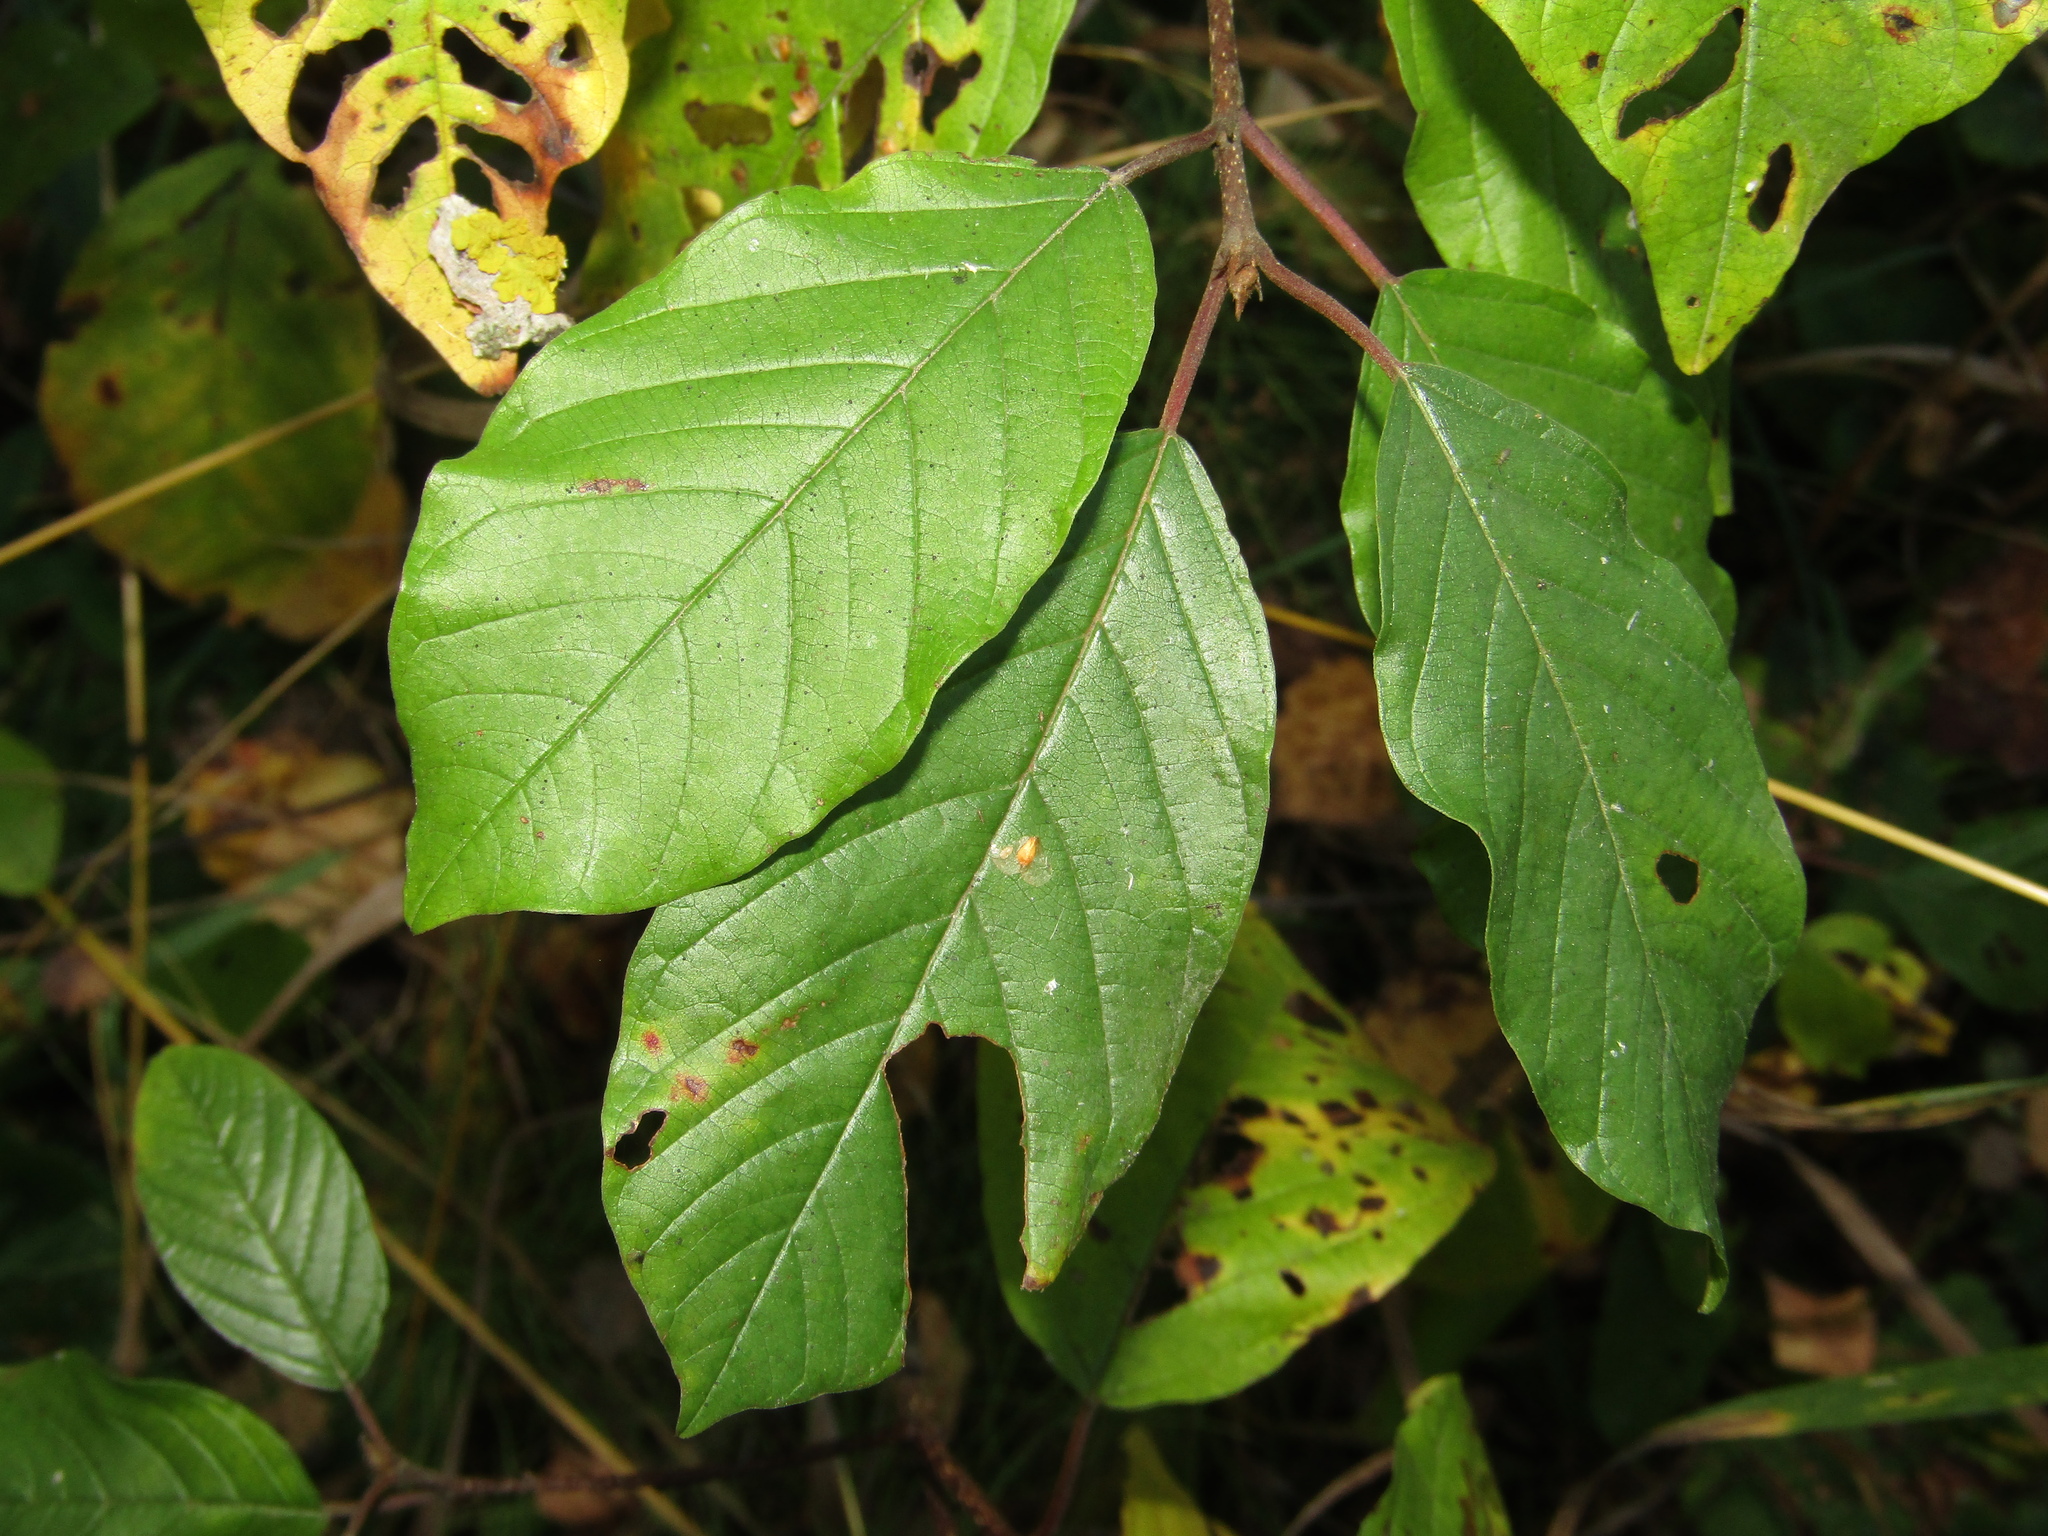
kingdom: Plantae
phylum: Tracheophyta
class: Magnoliopsida
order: Rosales
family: Rhamnaceae
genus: Frangula
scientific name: Frangula alnus
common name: Alder buckthorn
